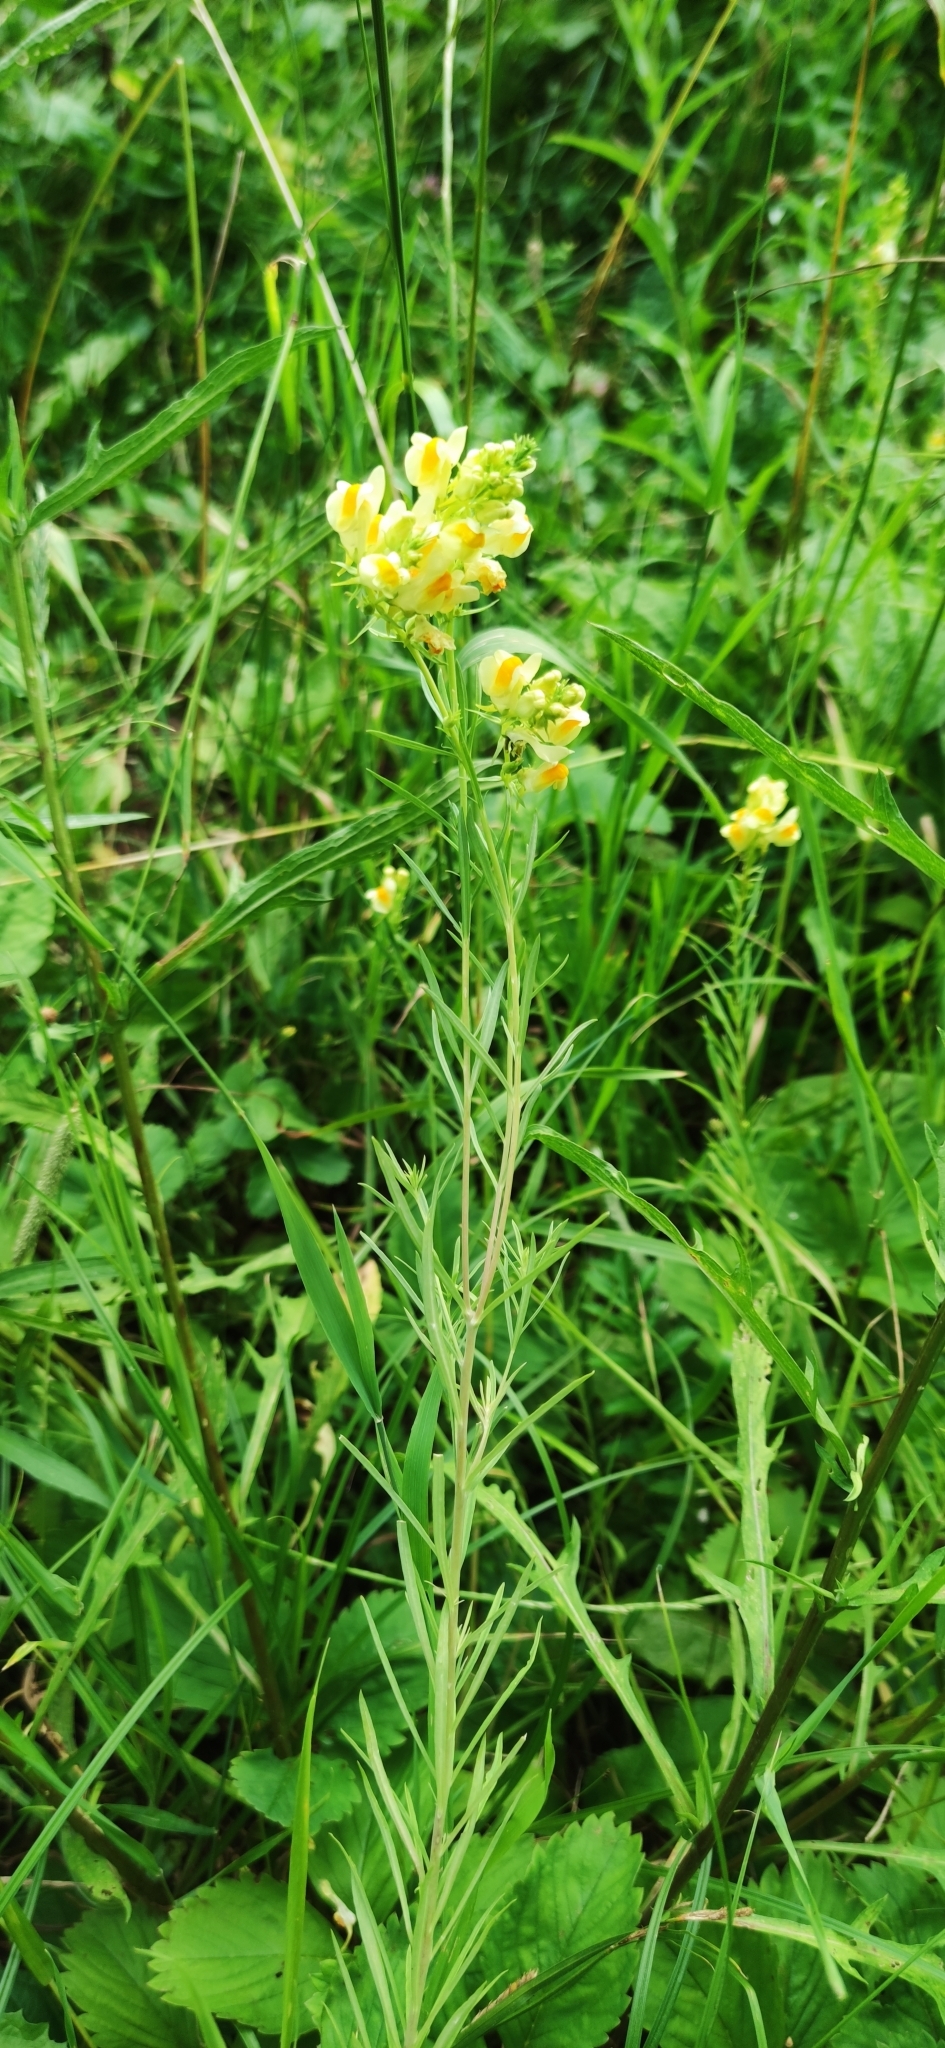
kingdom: Plantae
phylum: Tracheophyta
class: Magnoliopsida
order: Lamiales
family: Plantaginaceae
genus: Linaria
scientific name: Linaria vulgaris
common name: Butter and eggs
